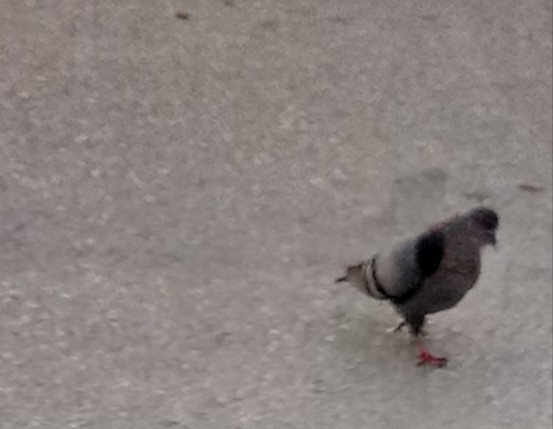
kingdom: Animalia
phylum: Chordata
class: Aves
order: Columbiformes
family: Columbidae
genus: Columba
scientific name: Columba livia
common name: Rock pigeon
